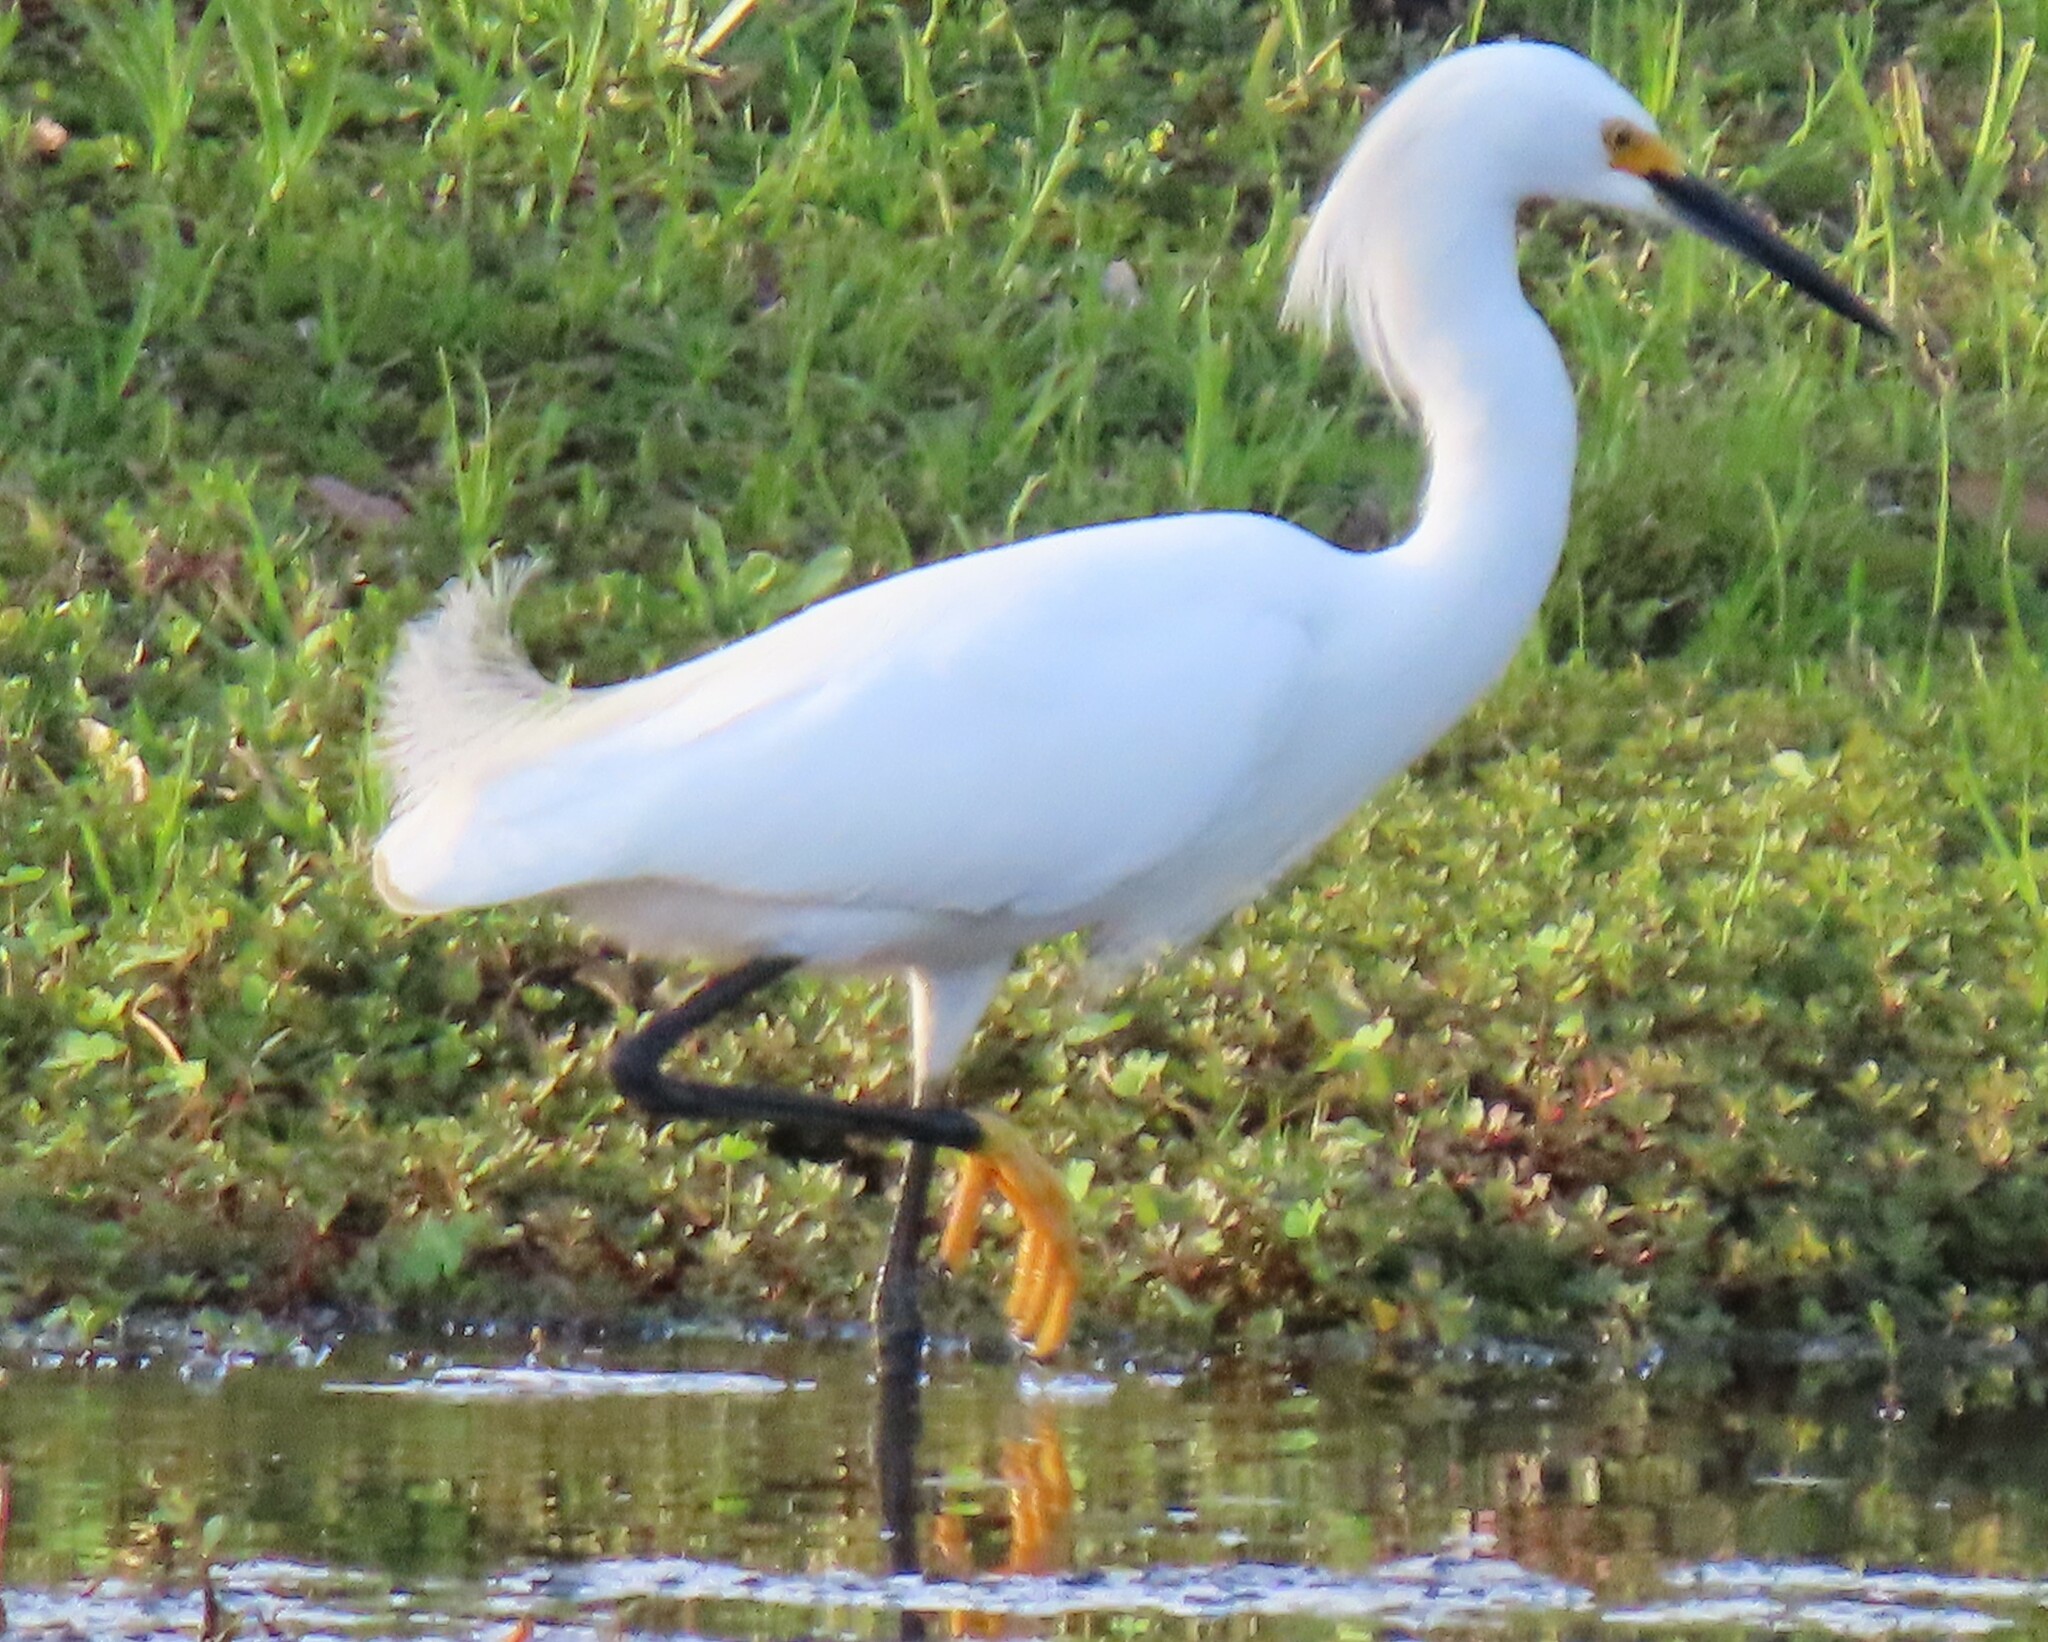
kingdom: Animalia
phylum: Chordata
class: Aves
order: Pelecaniformes
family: Ardeidae
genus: Egretta
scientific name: Egretta thula
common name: Snowy egret
